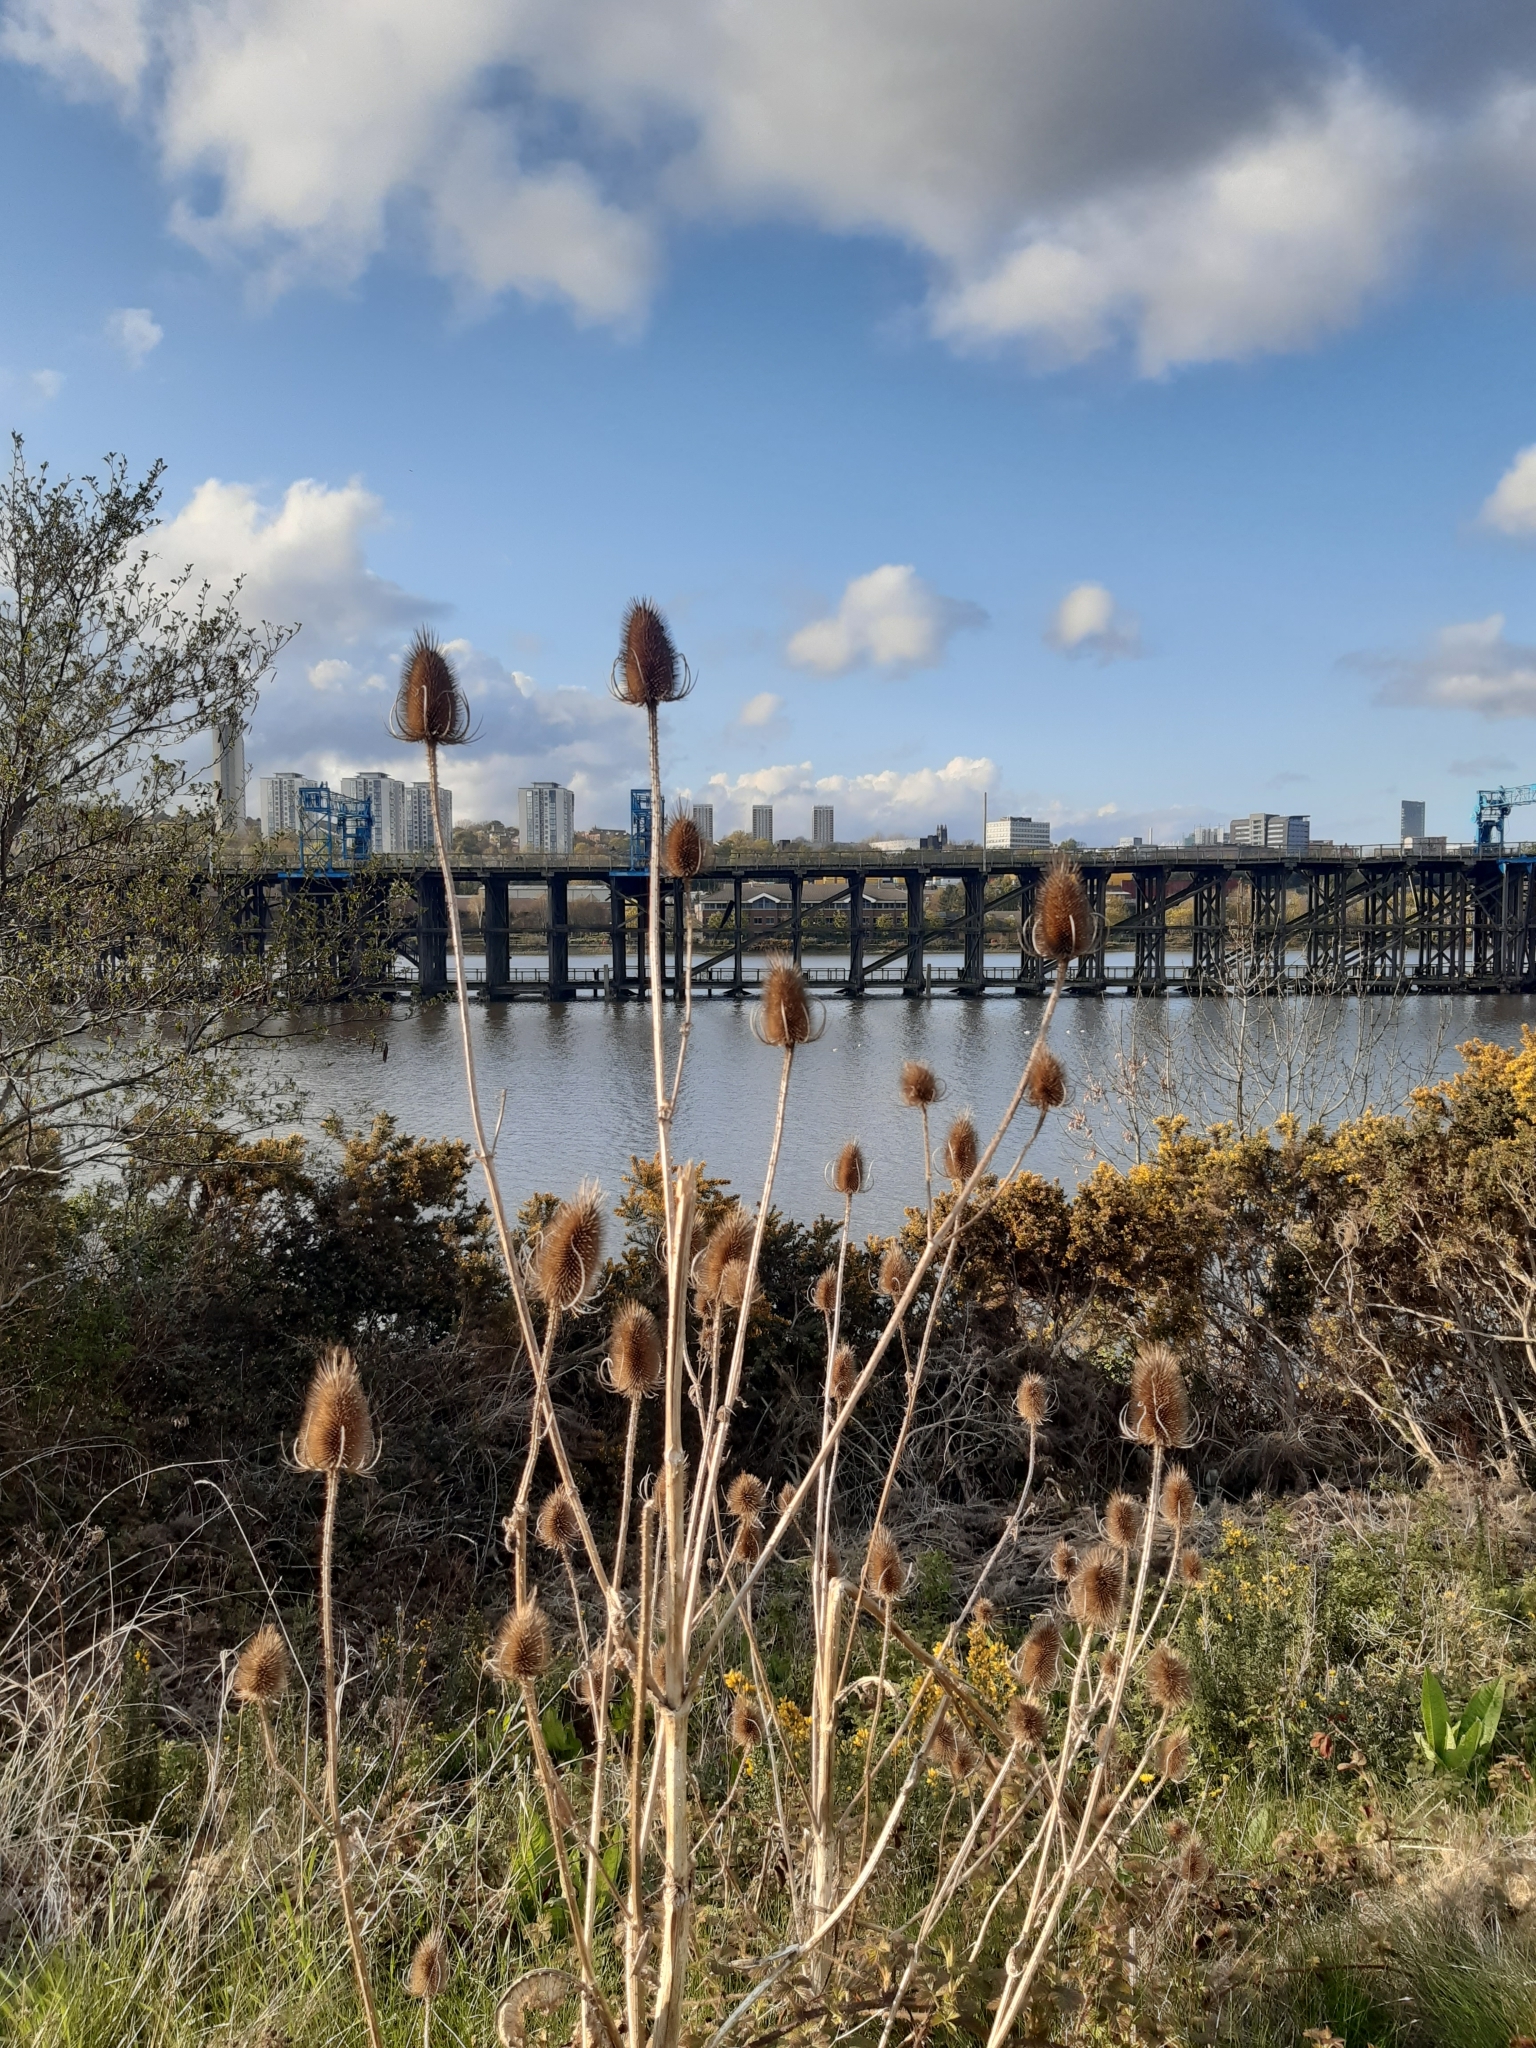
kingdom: Plantae
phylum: Tracheophyta
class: Magnoliopsida
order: Dipsacales
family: Caprifoliaceae
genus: Dipsacus
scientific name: Dipsacus fullonum
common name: Teasel
